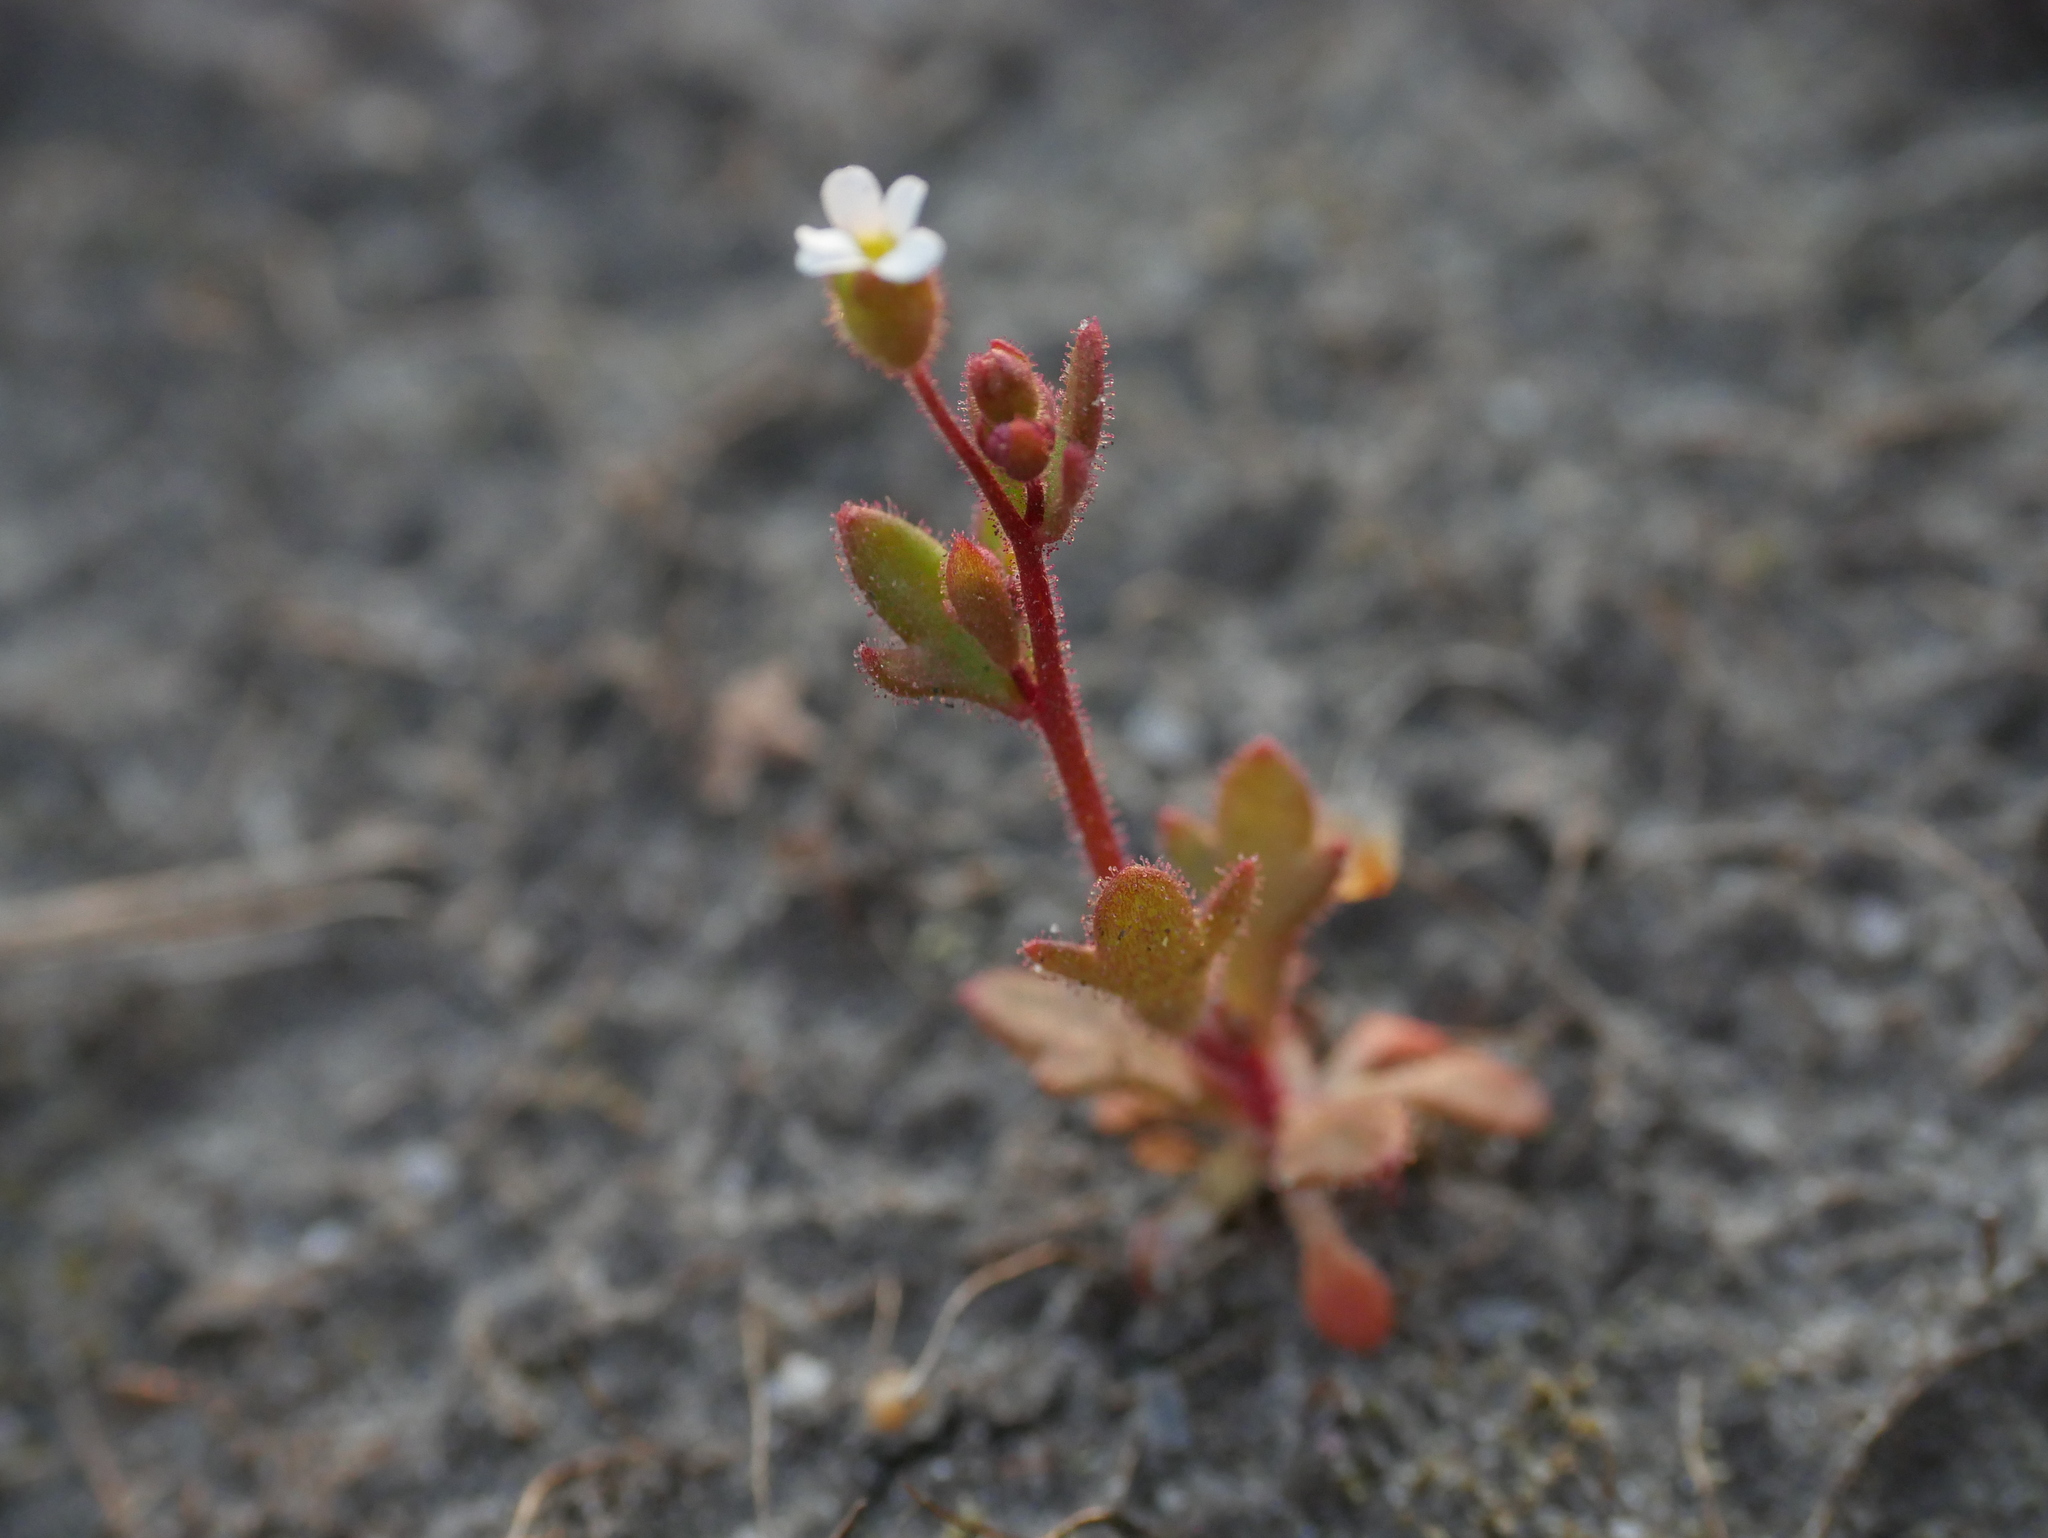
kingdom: Plantae
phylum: Tracheophyta
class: Magnoliopsida
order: Saxifragales
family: Saxifragaceae
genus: Saxifraga
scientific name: Saxifraga tridactylites
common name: Rue-leaved saxifrage
